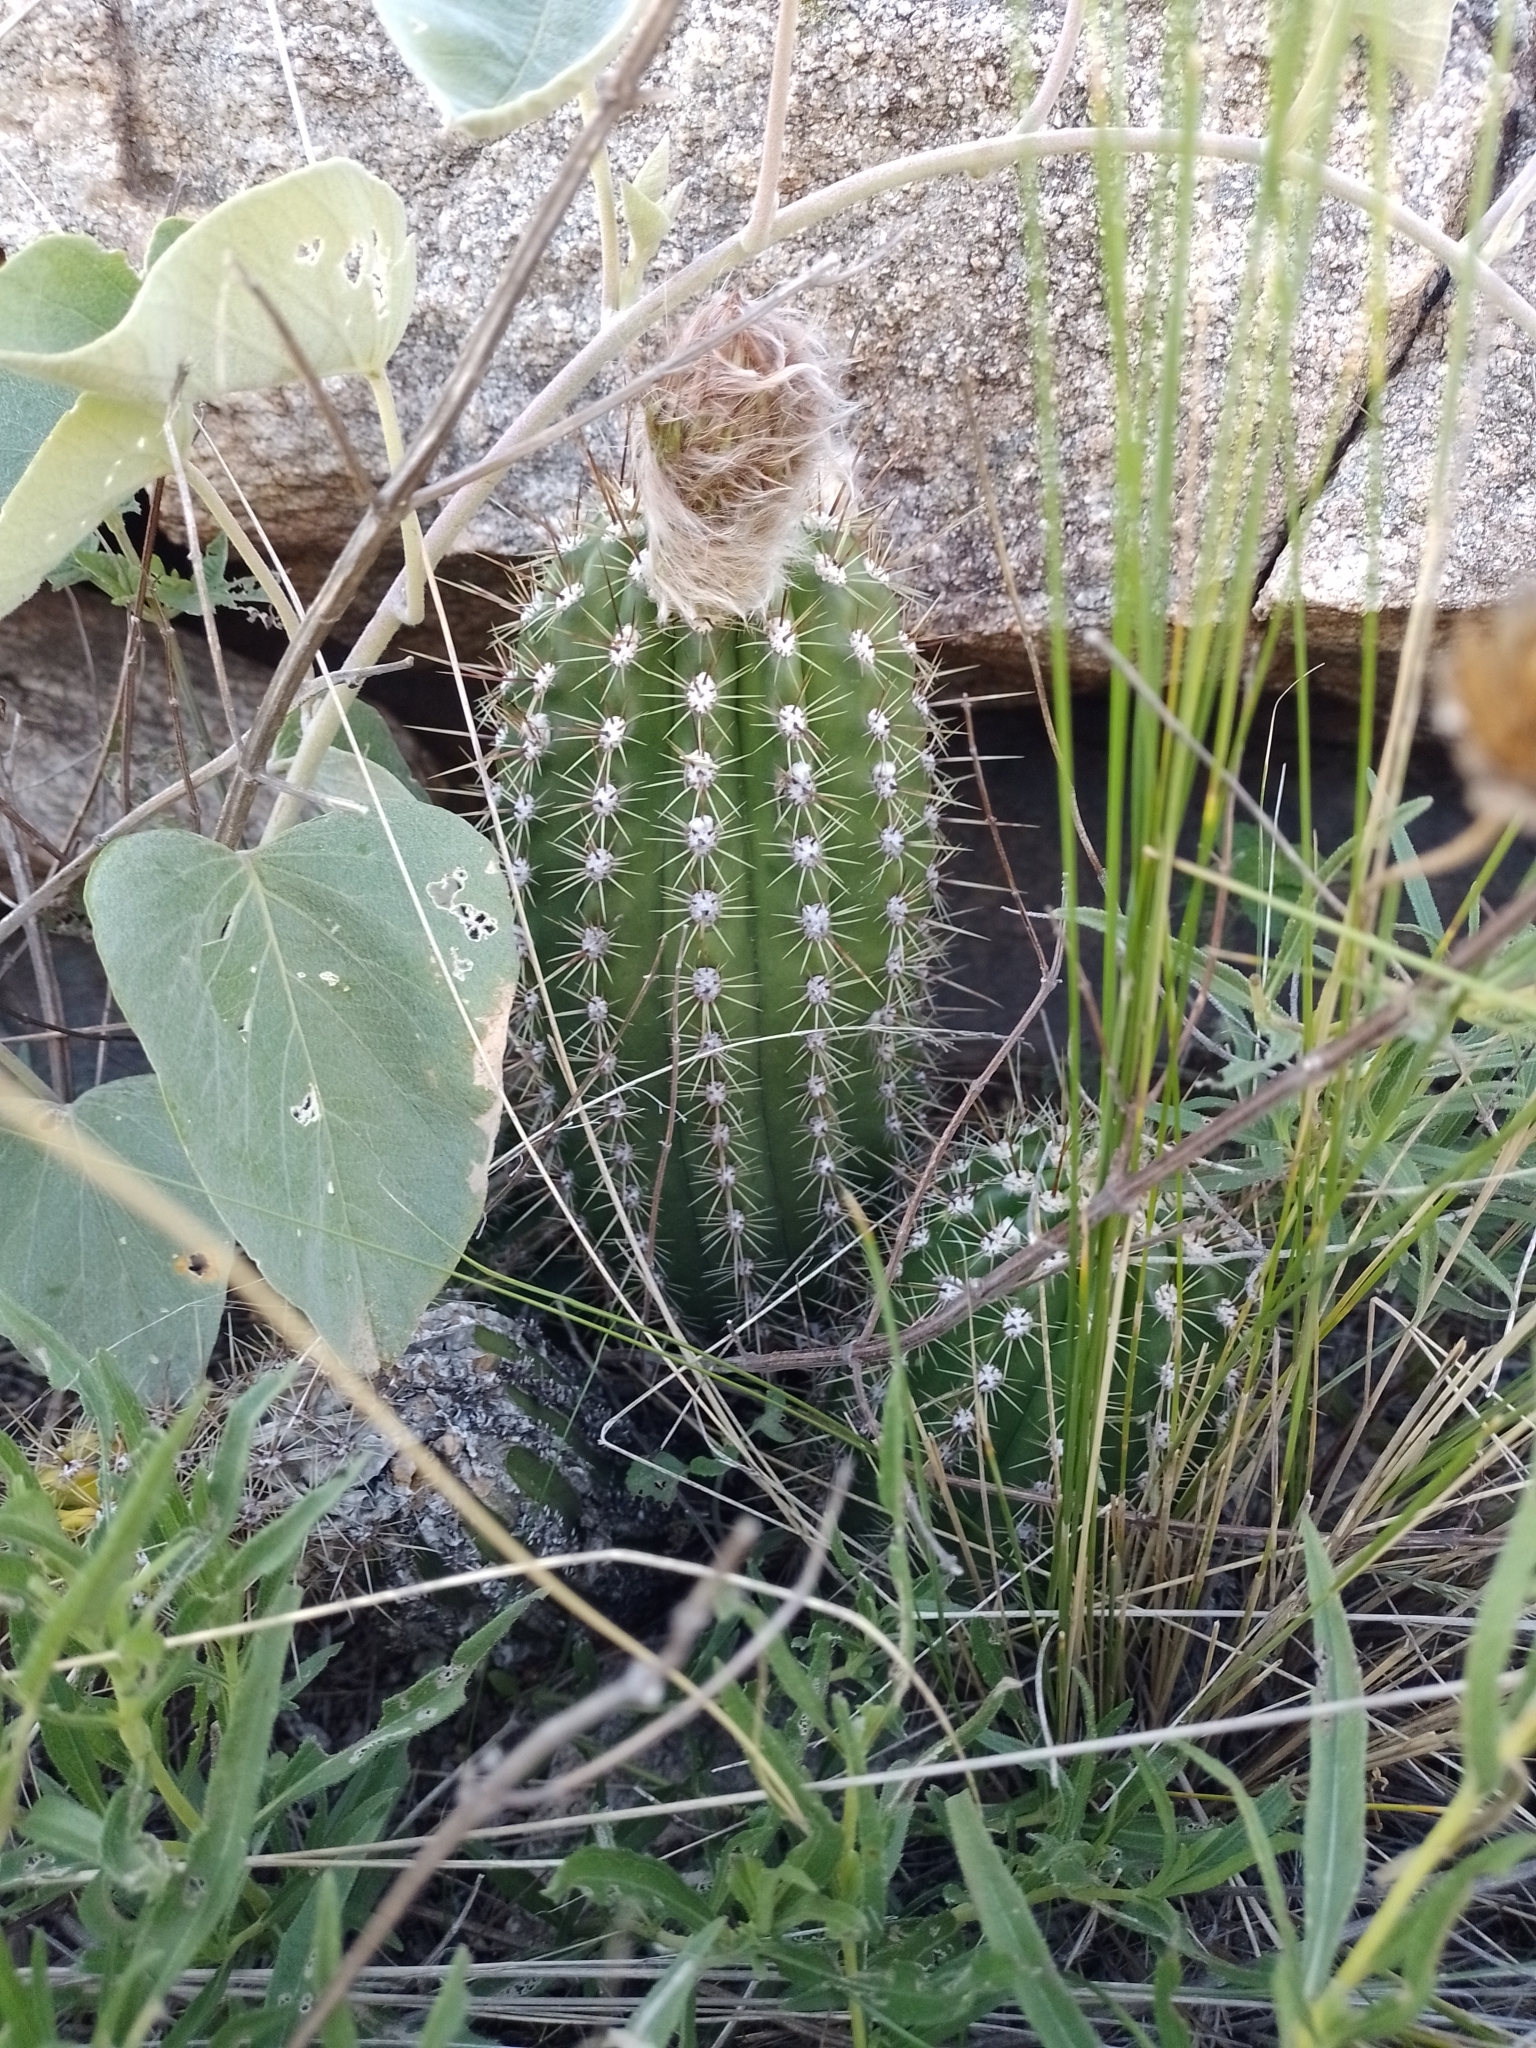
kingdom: Plantae
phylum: Tracheophyta
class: Magnoliopsida
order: Caryophyllales
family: Cactaceae
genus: Soehrensia
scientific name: Soehrensia candicans
